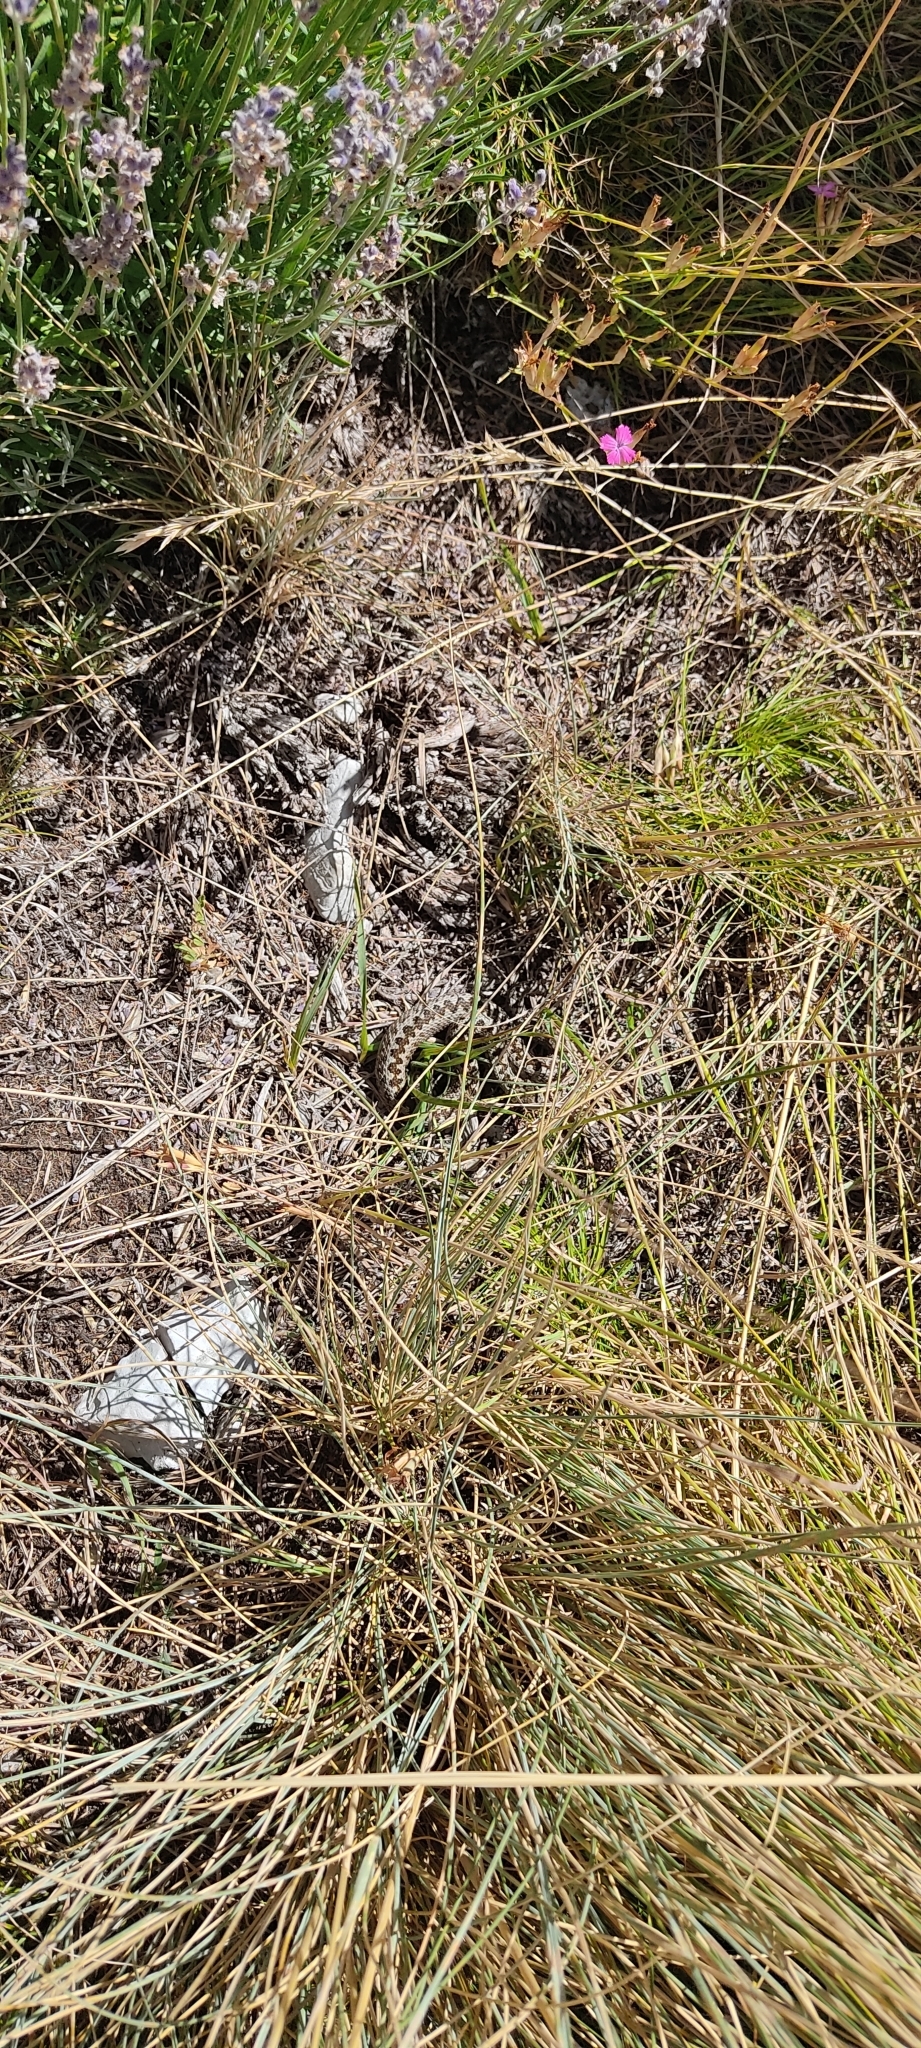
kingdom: Animalia
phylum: Chordata
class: Squamata
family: Viperidae
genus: Vipera
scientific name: Vipera ursinii
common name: Meadow viper
